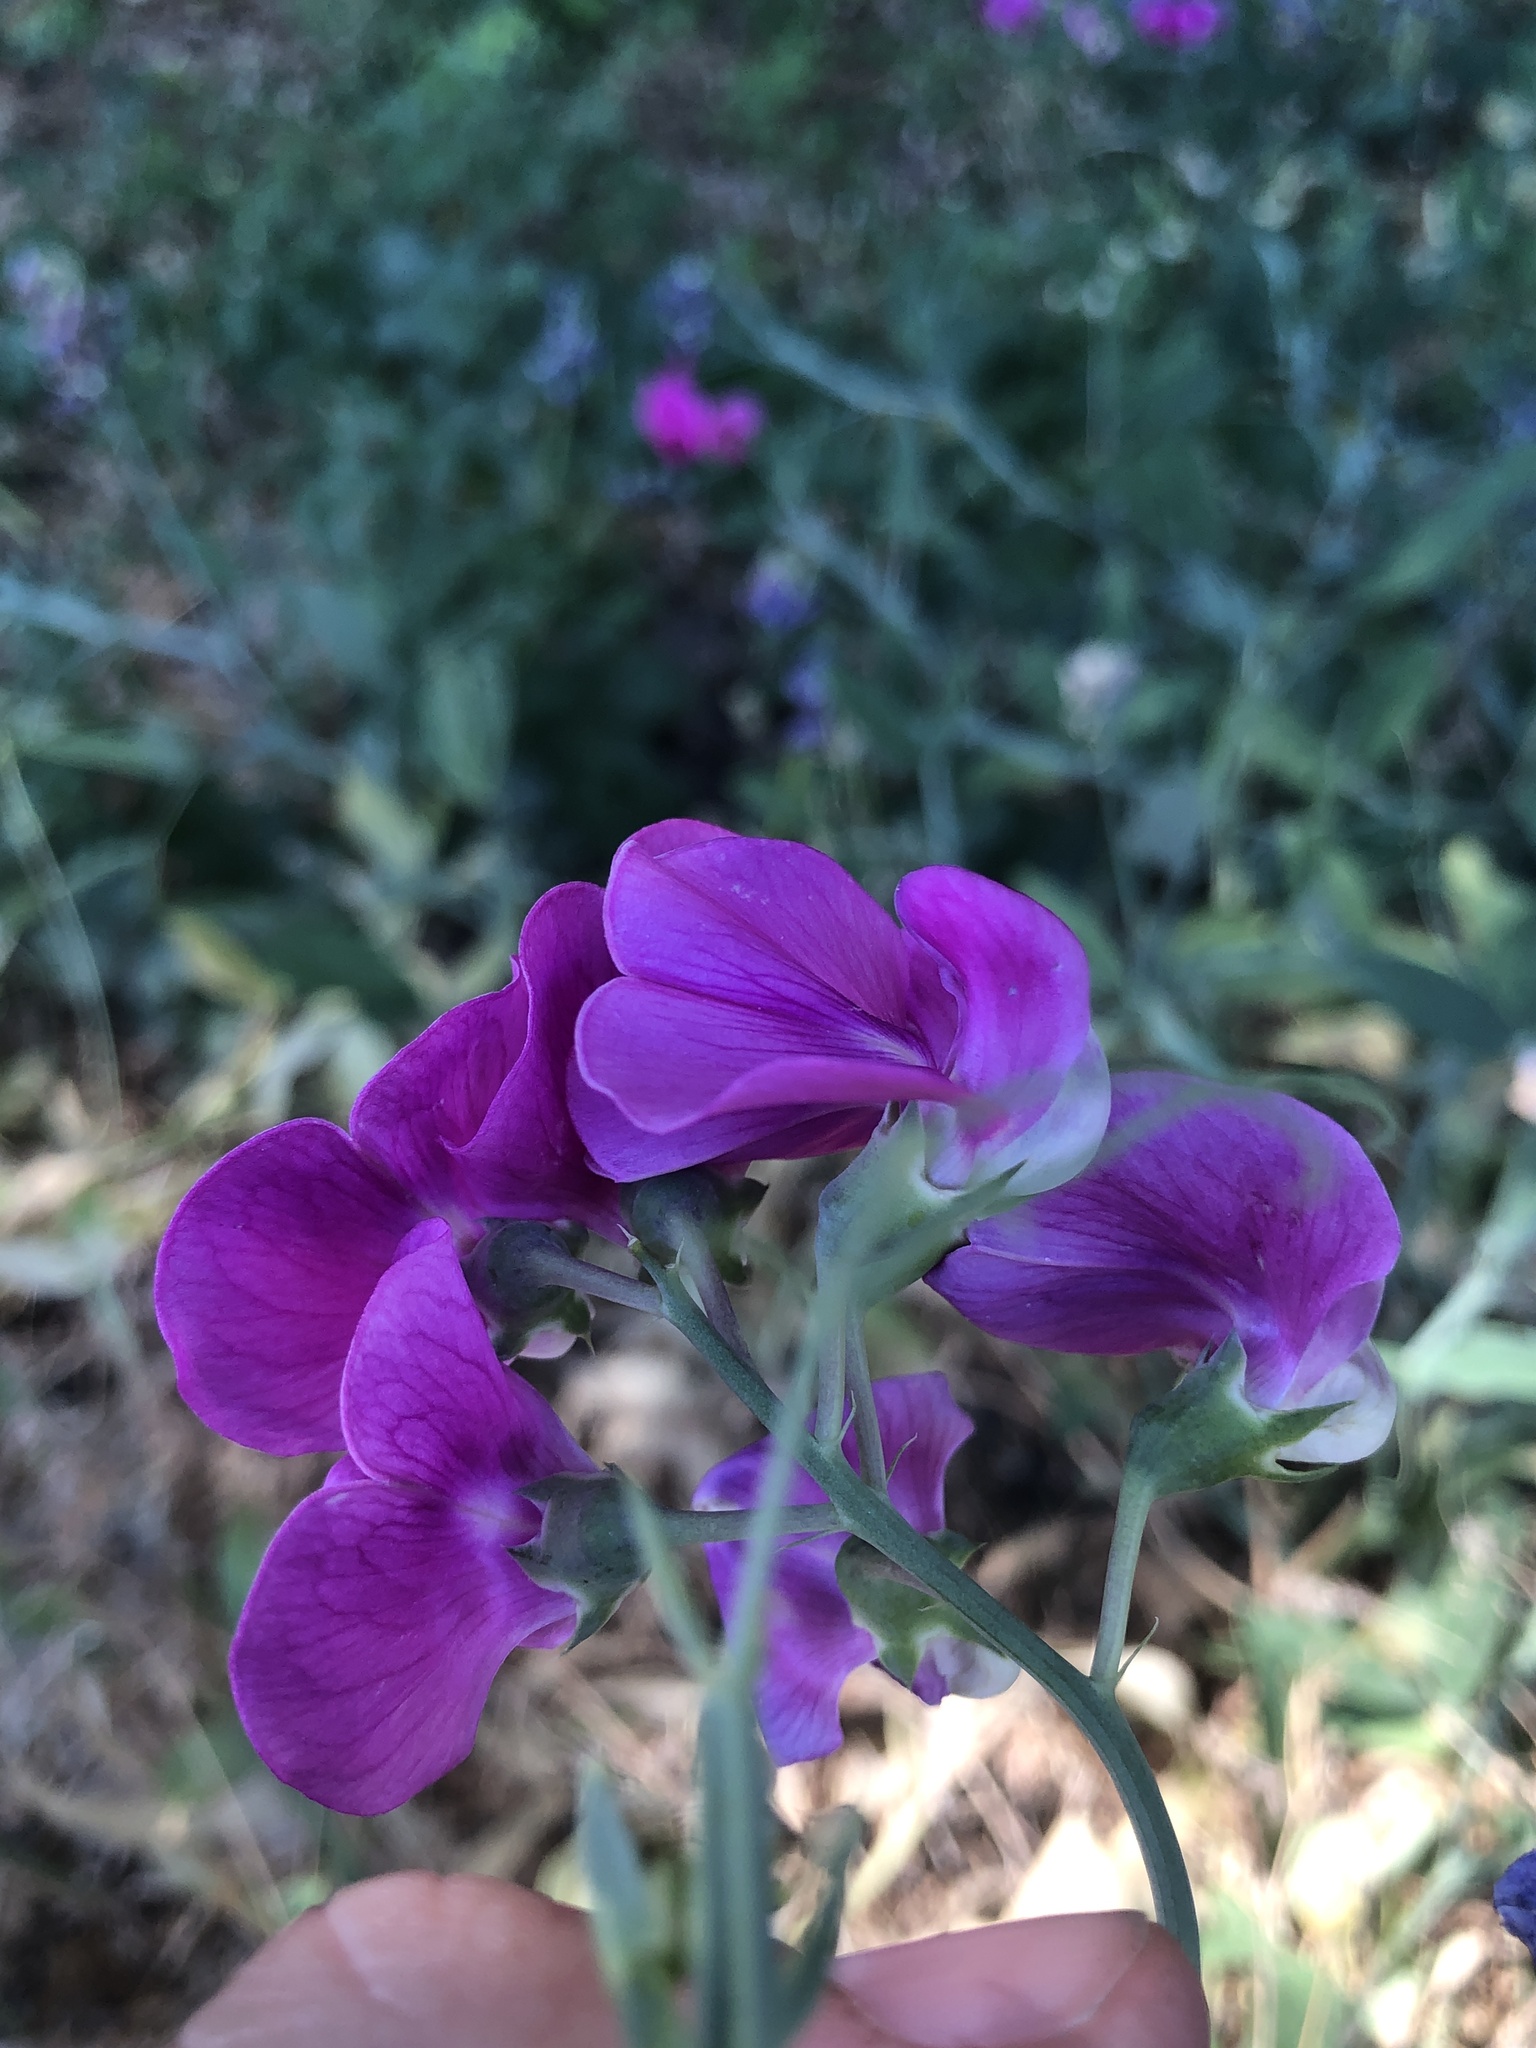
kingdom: Plantae
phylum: Tracheophyta
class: Magnoliopsida
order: Fabales
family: Fabaceae
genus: Lathyrus
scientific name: Lathyrus latifolius
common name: Perennial pea
